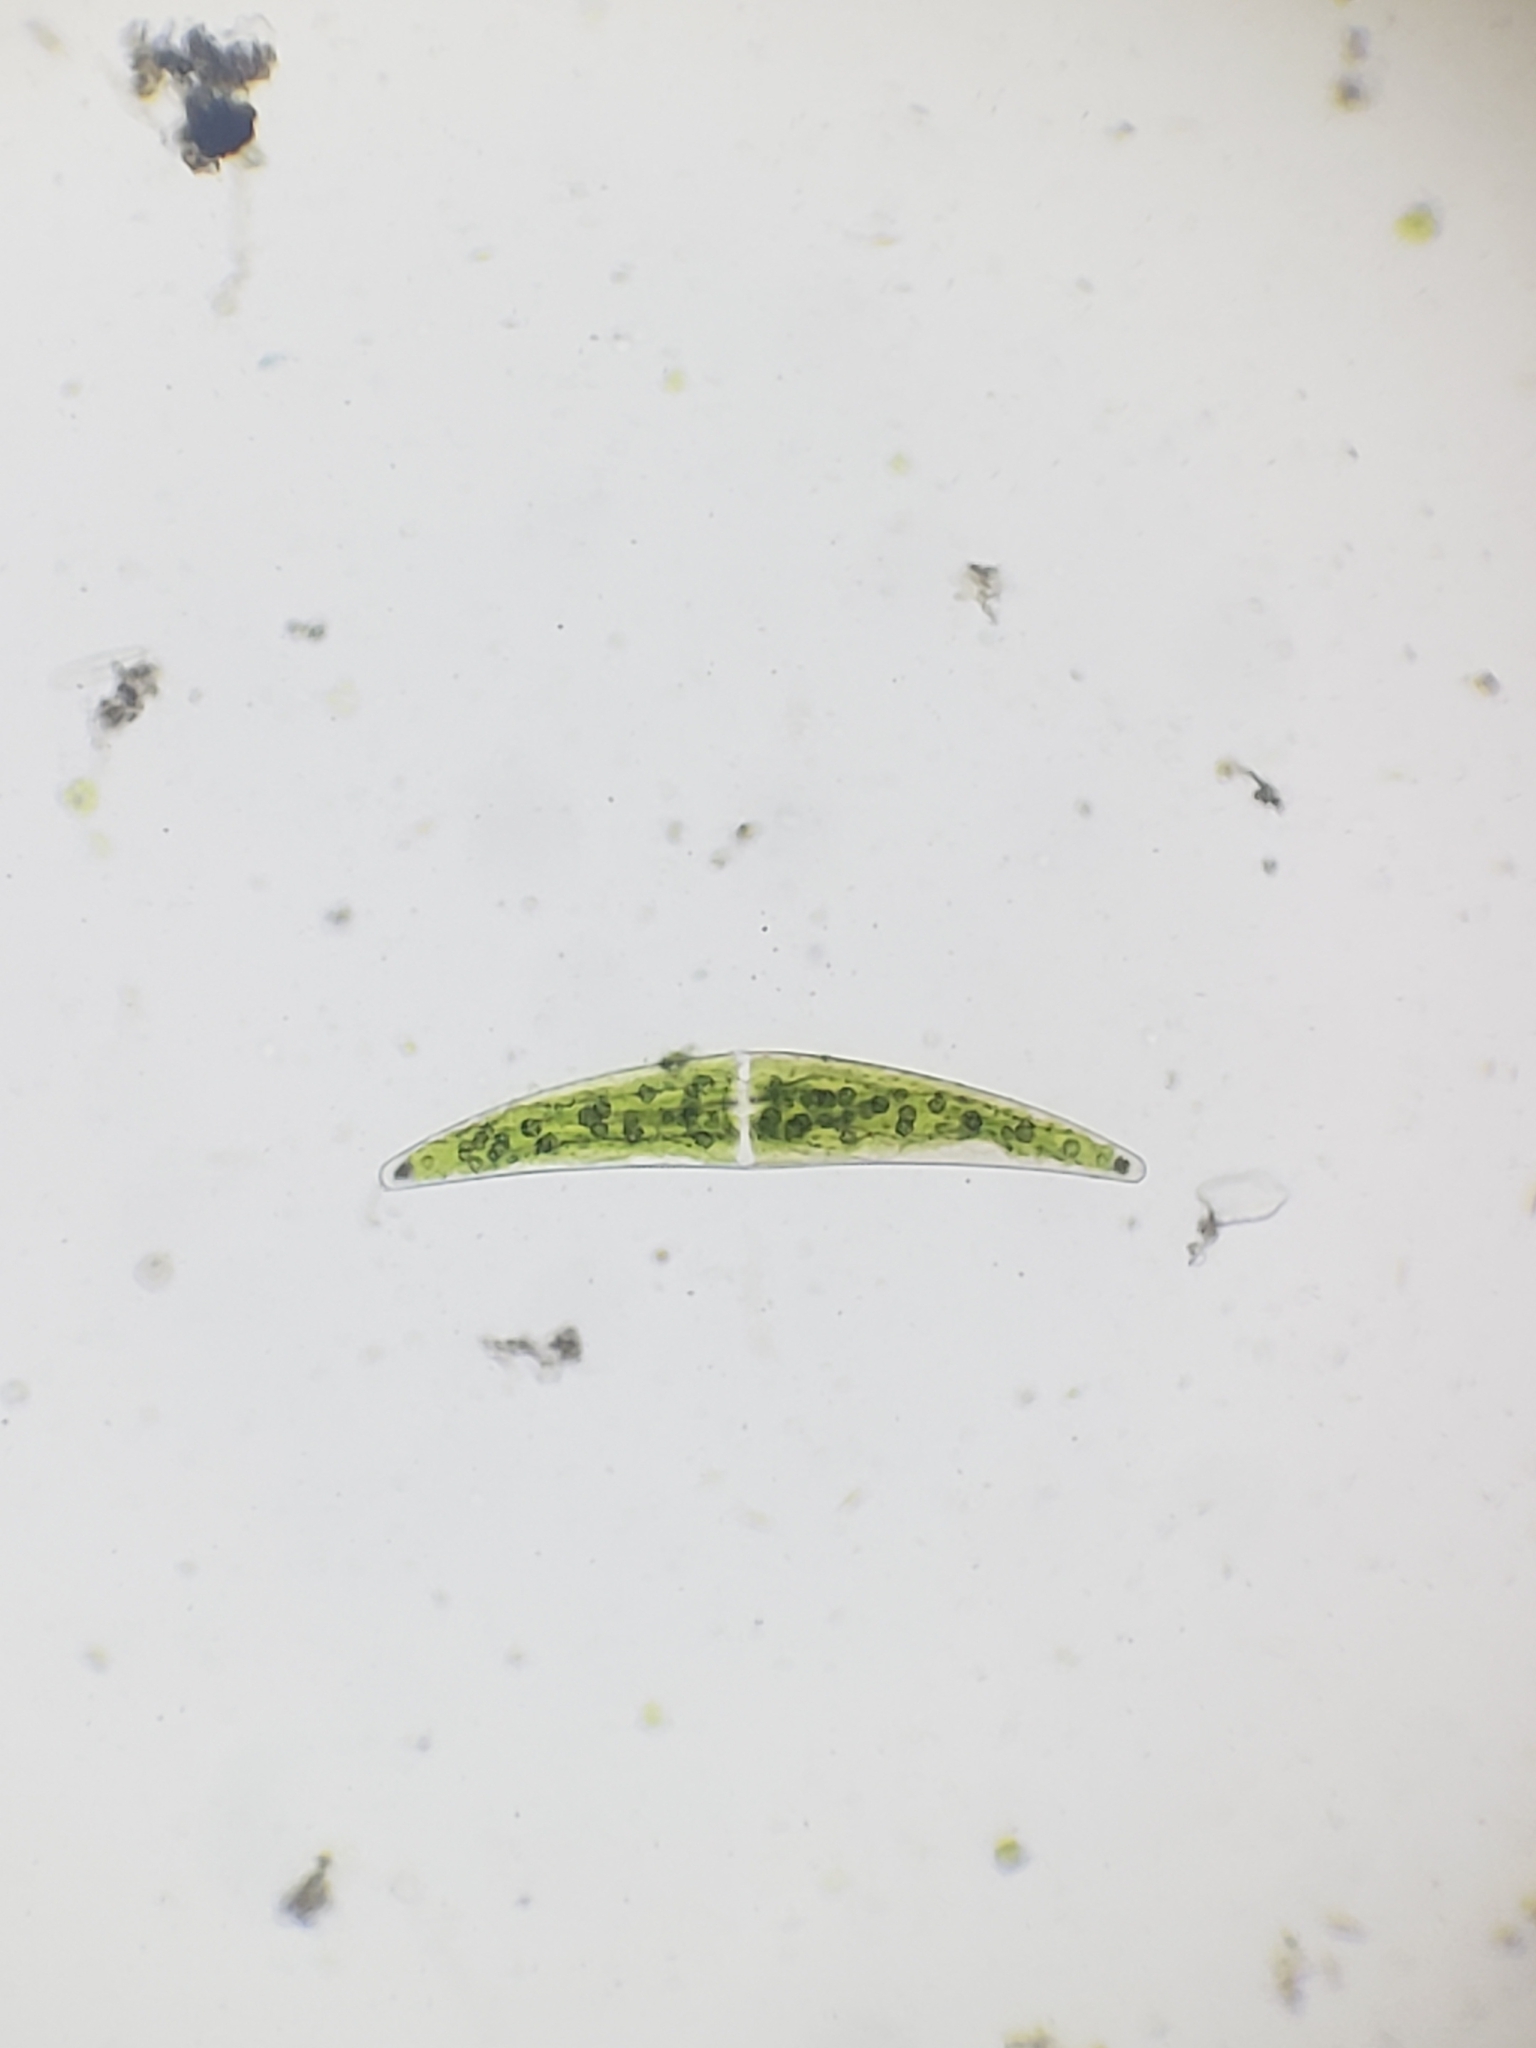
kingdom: Plantae
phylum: Charophyta
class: Zygnematophyceae
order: Zygnematales
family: Closteriaceae
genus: Closterium
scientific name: Closterium ehrenbergii
